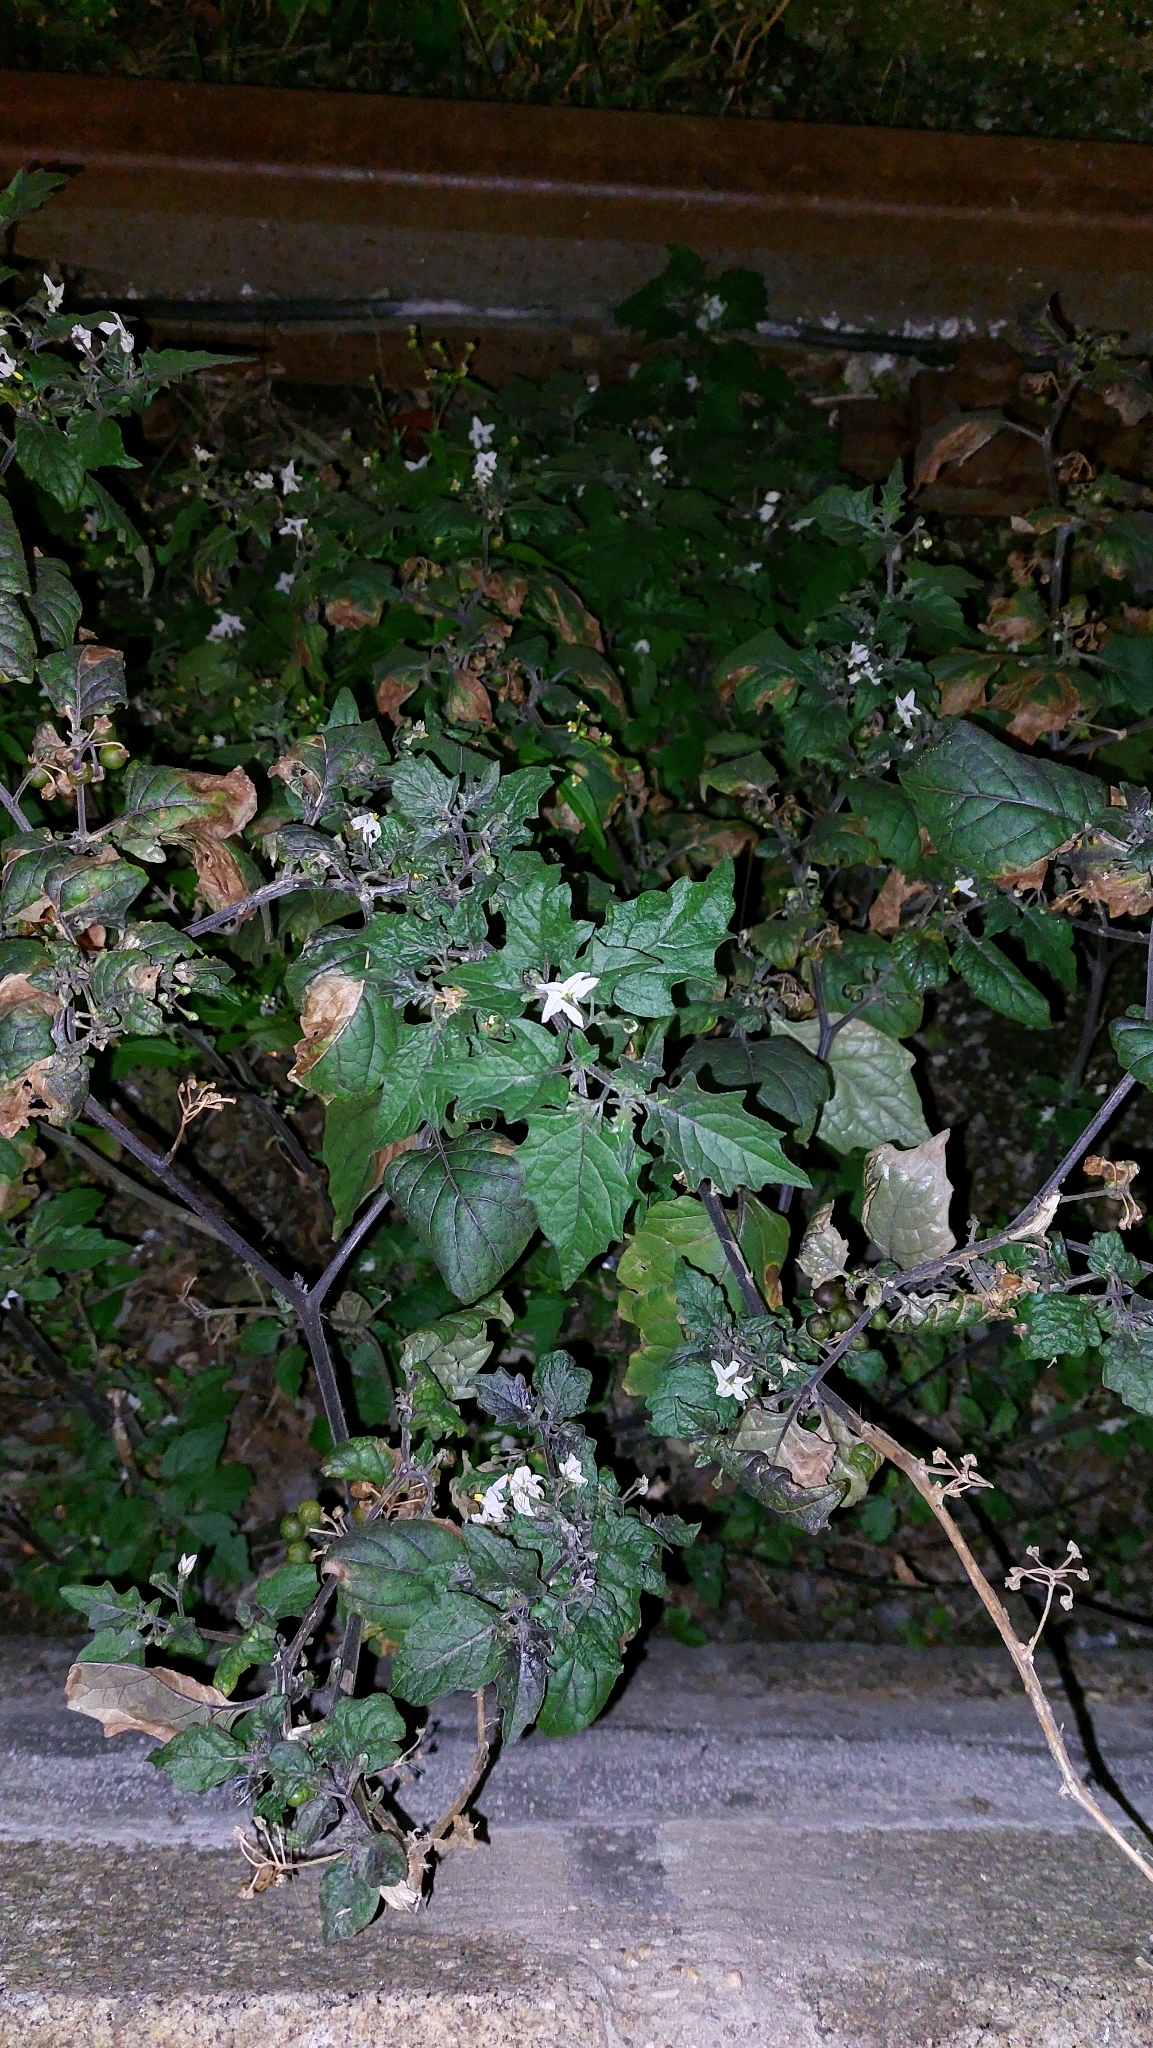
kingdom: Plantae
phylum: Tracheophyta
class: Magnoliopsida
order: Solanales
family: Solanaceae
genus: Solanum
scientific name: Solanum nigrum
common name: Black nightshade
